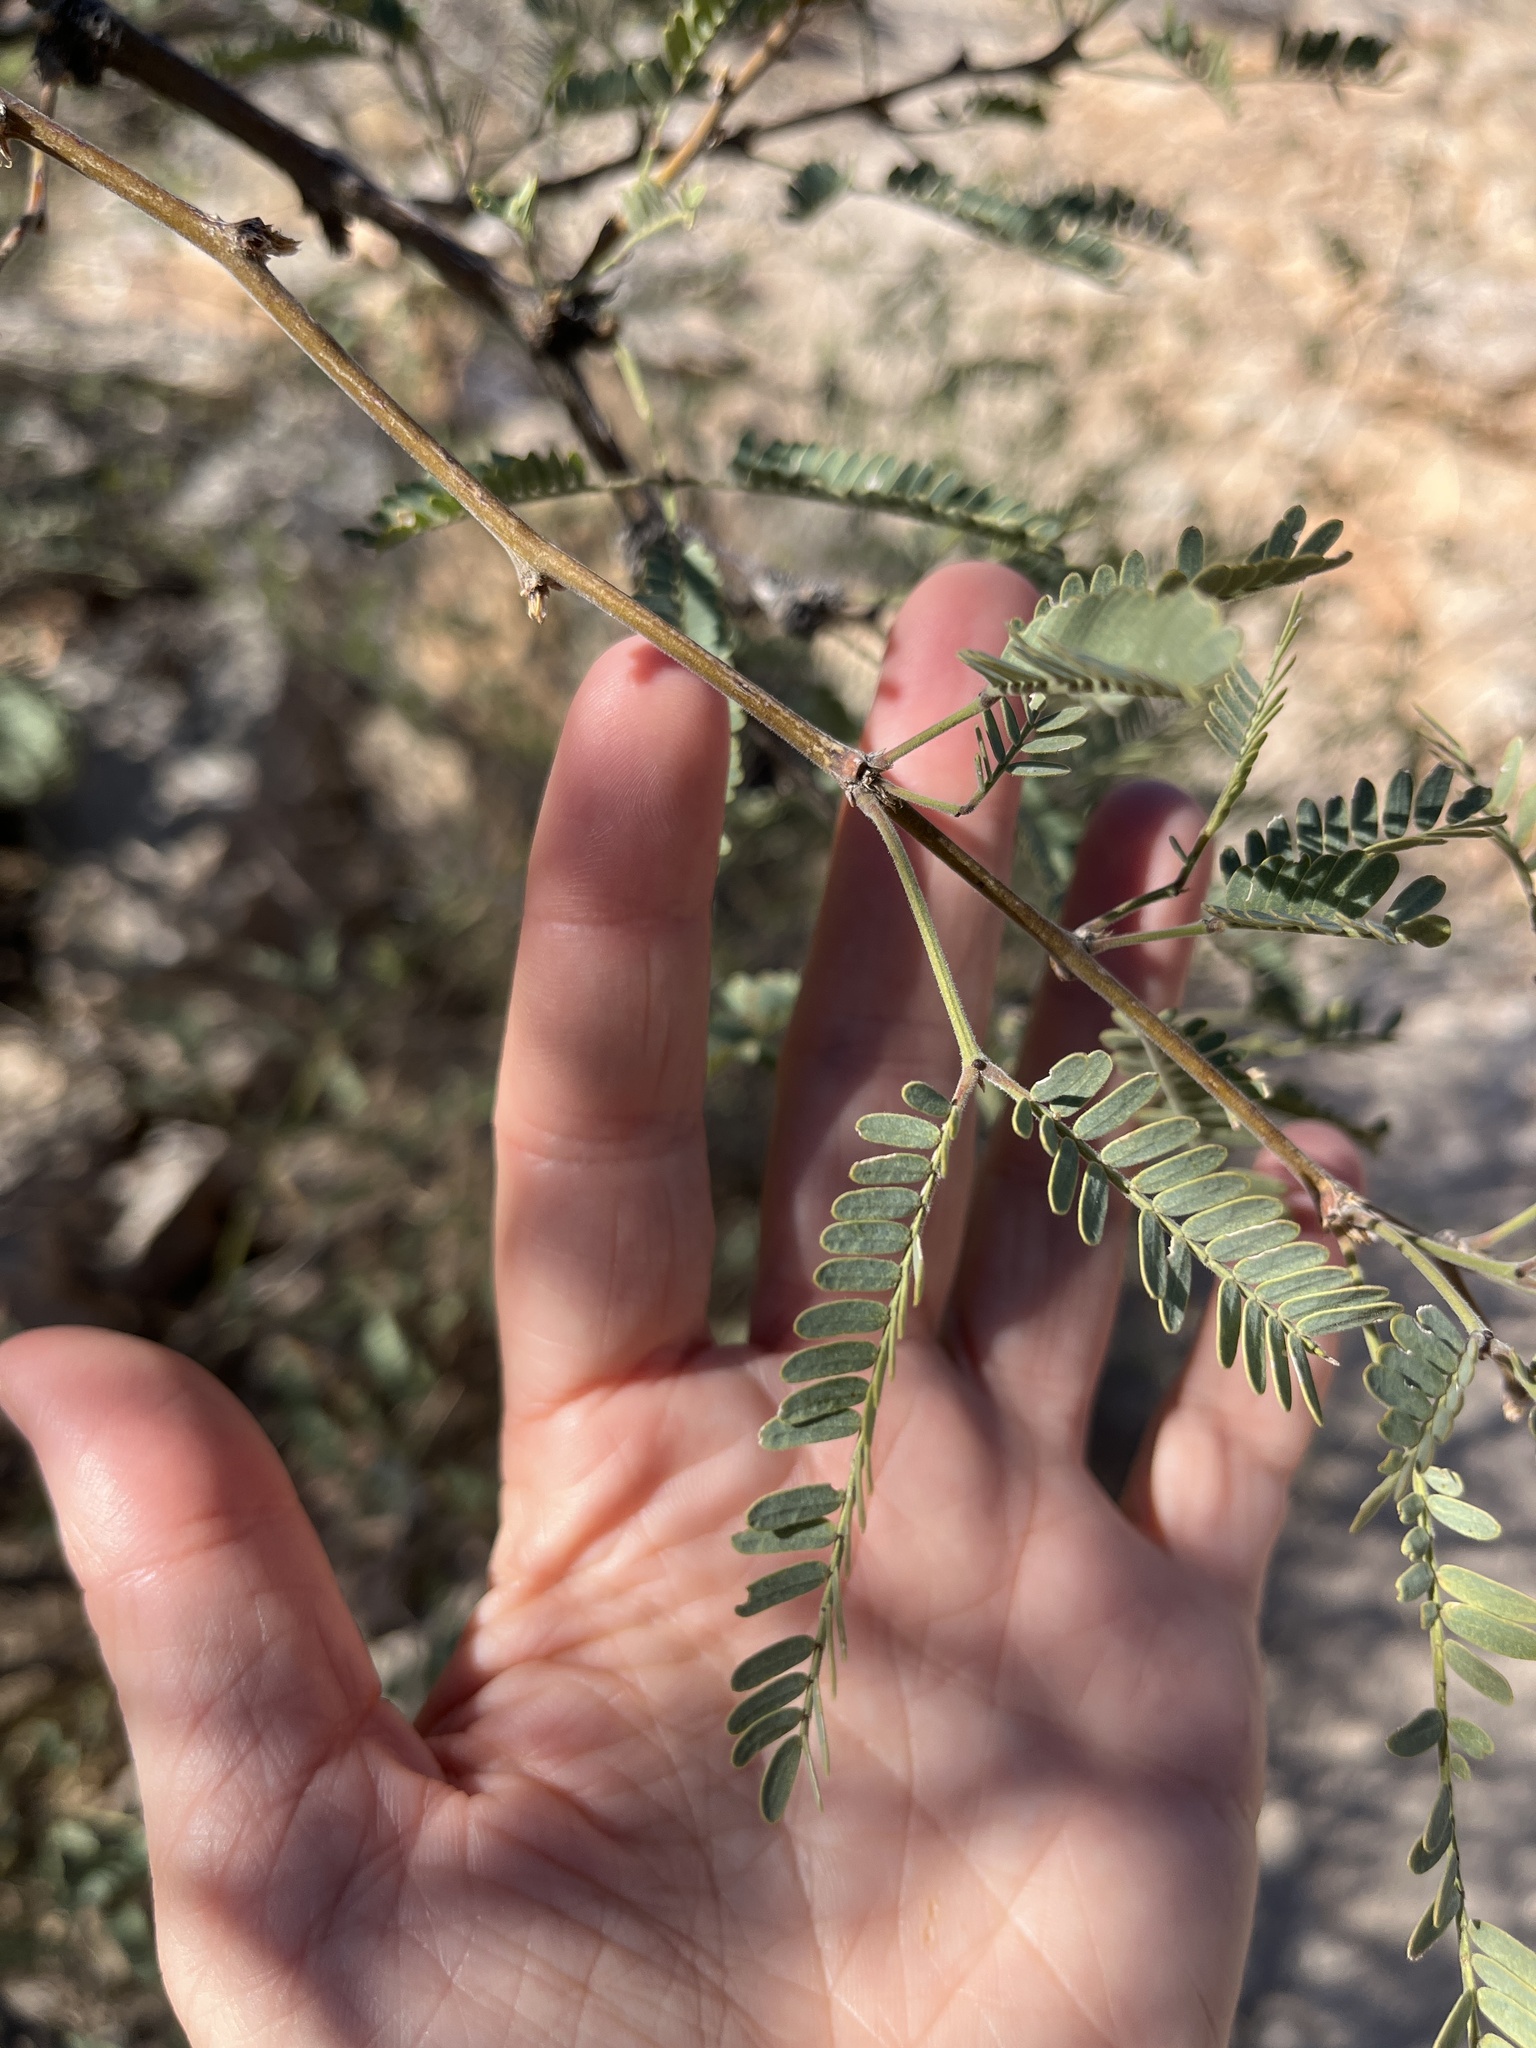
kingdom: Plantae
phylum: Tracheophyta
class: Magnoliopsida
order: Fabales
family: Fabaceae
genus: Prosopis
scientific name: Prosopis velutina
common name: Velvet mesquite
